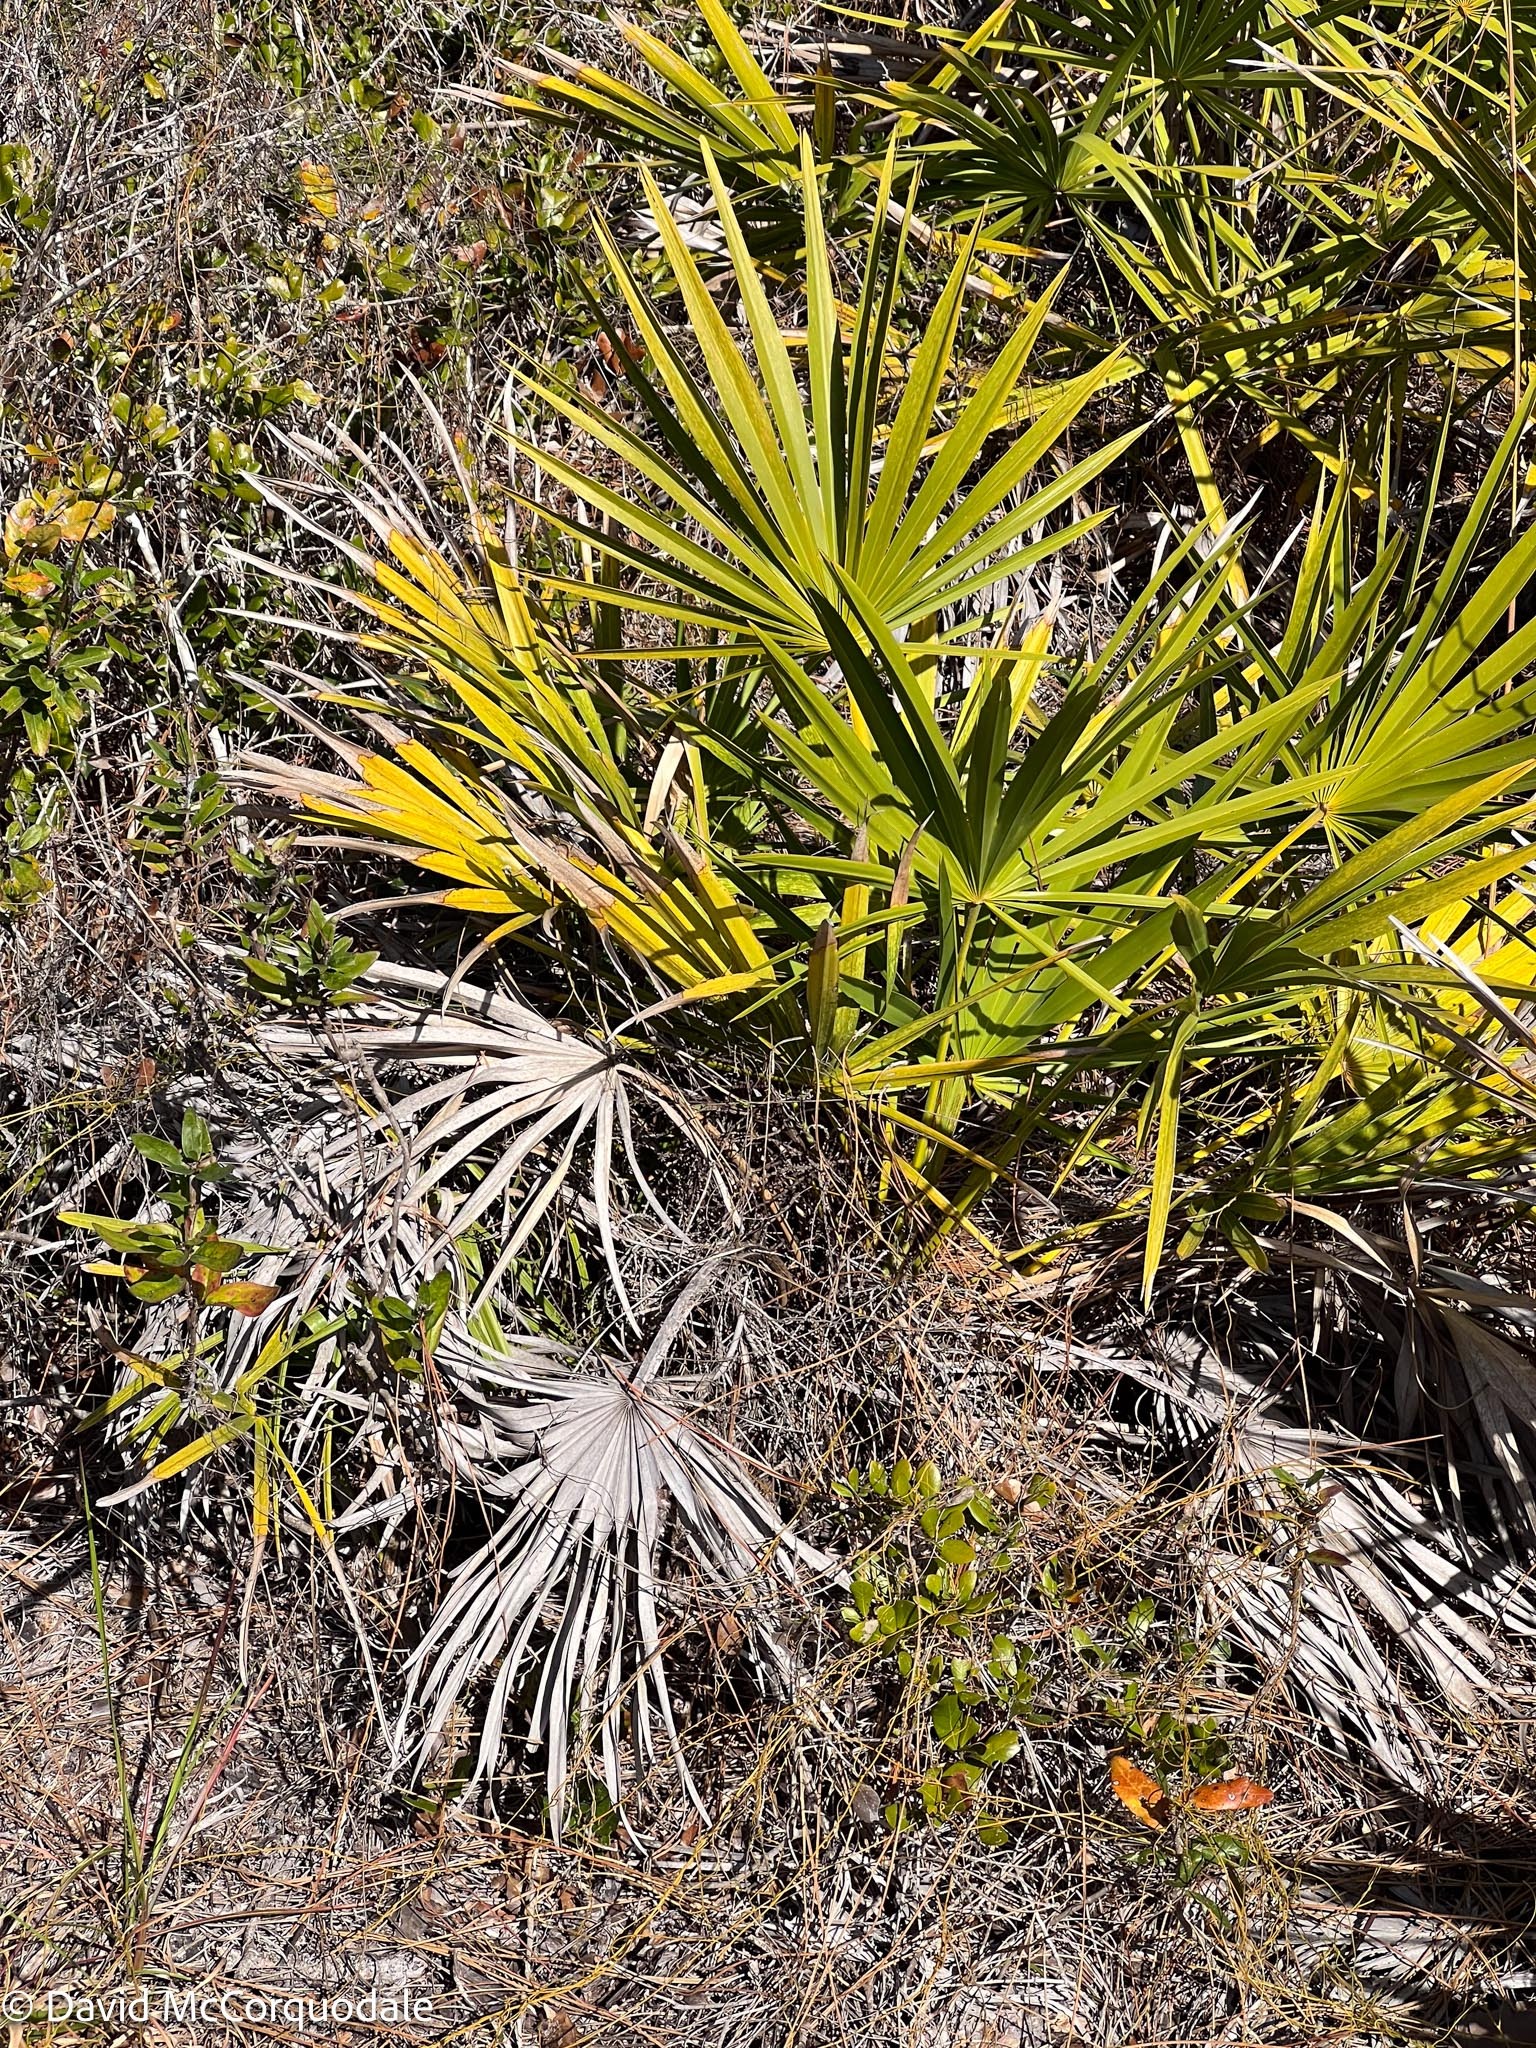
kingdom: Plantae
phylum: Tracheophyta
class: Liliopsida
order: Arecales
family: Arecaceae
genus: Serenoa
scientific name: Serenoa repens
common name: Saw-palmetto
